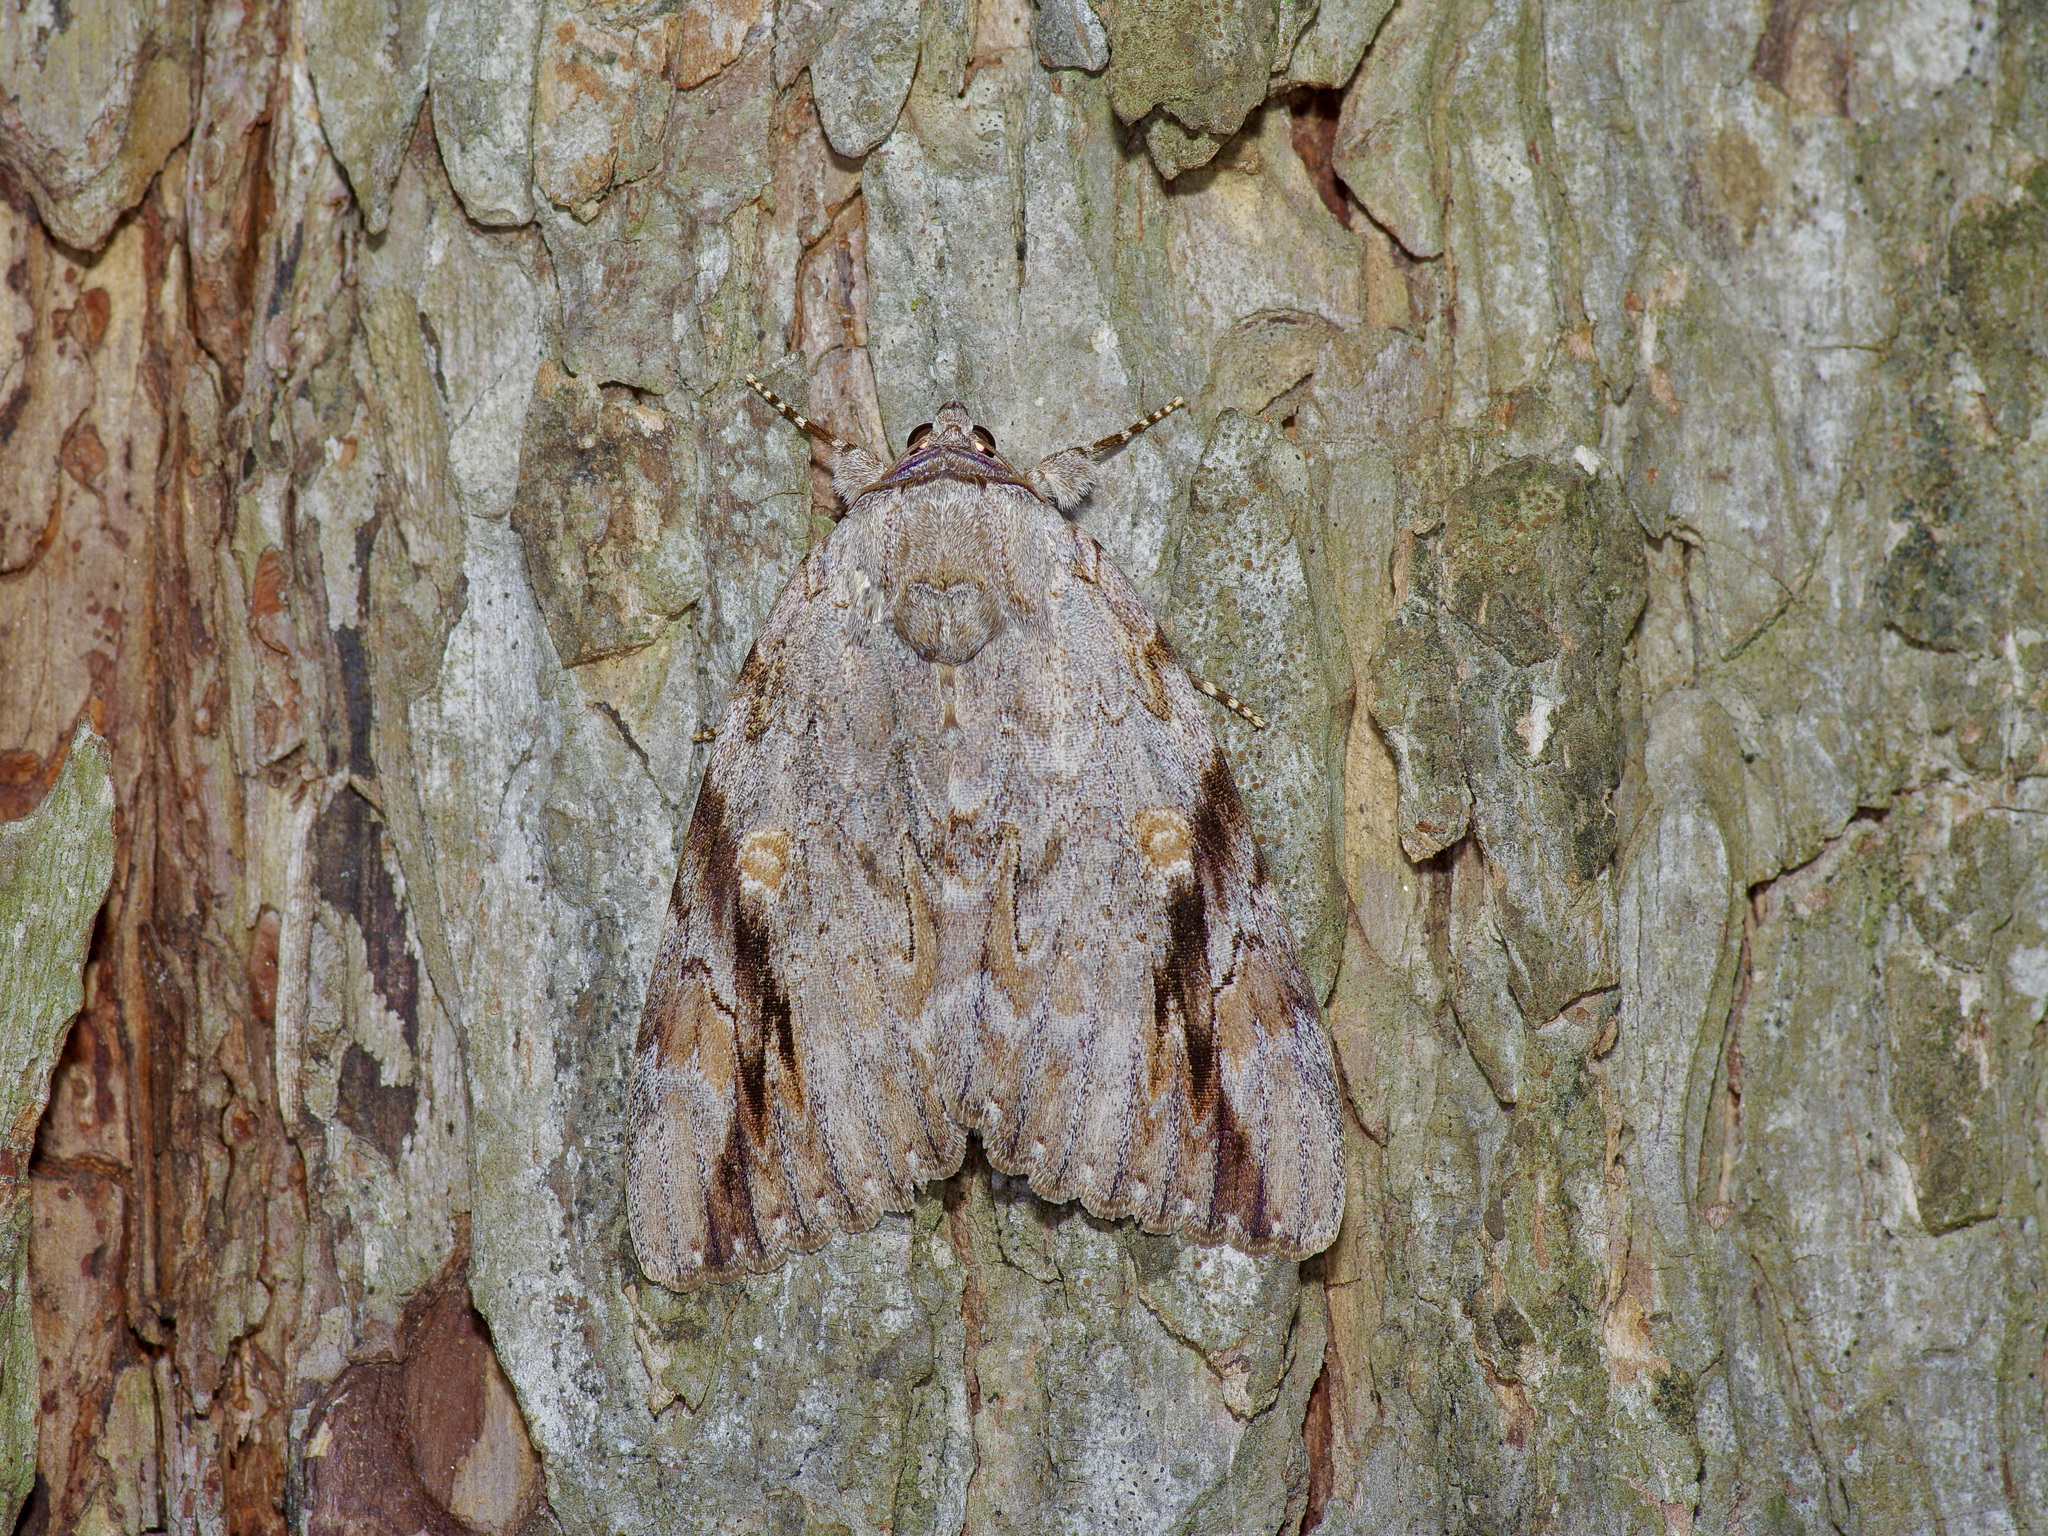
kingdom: Animalia
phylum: Arthropoda
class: Insecta
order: Lepidoptera
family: Erebidae
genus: Catocala
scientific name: Catocala maestosa
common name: Sad underwing
